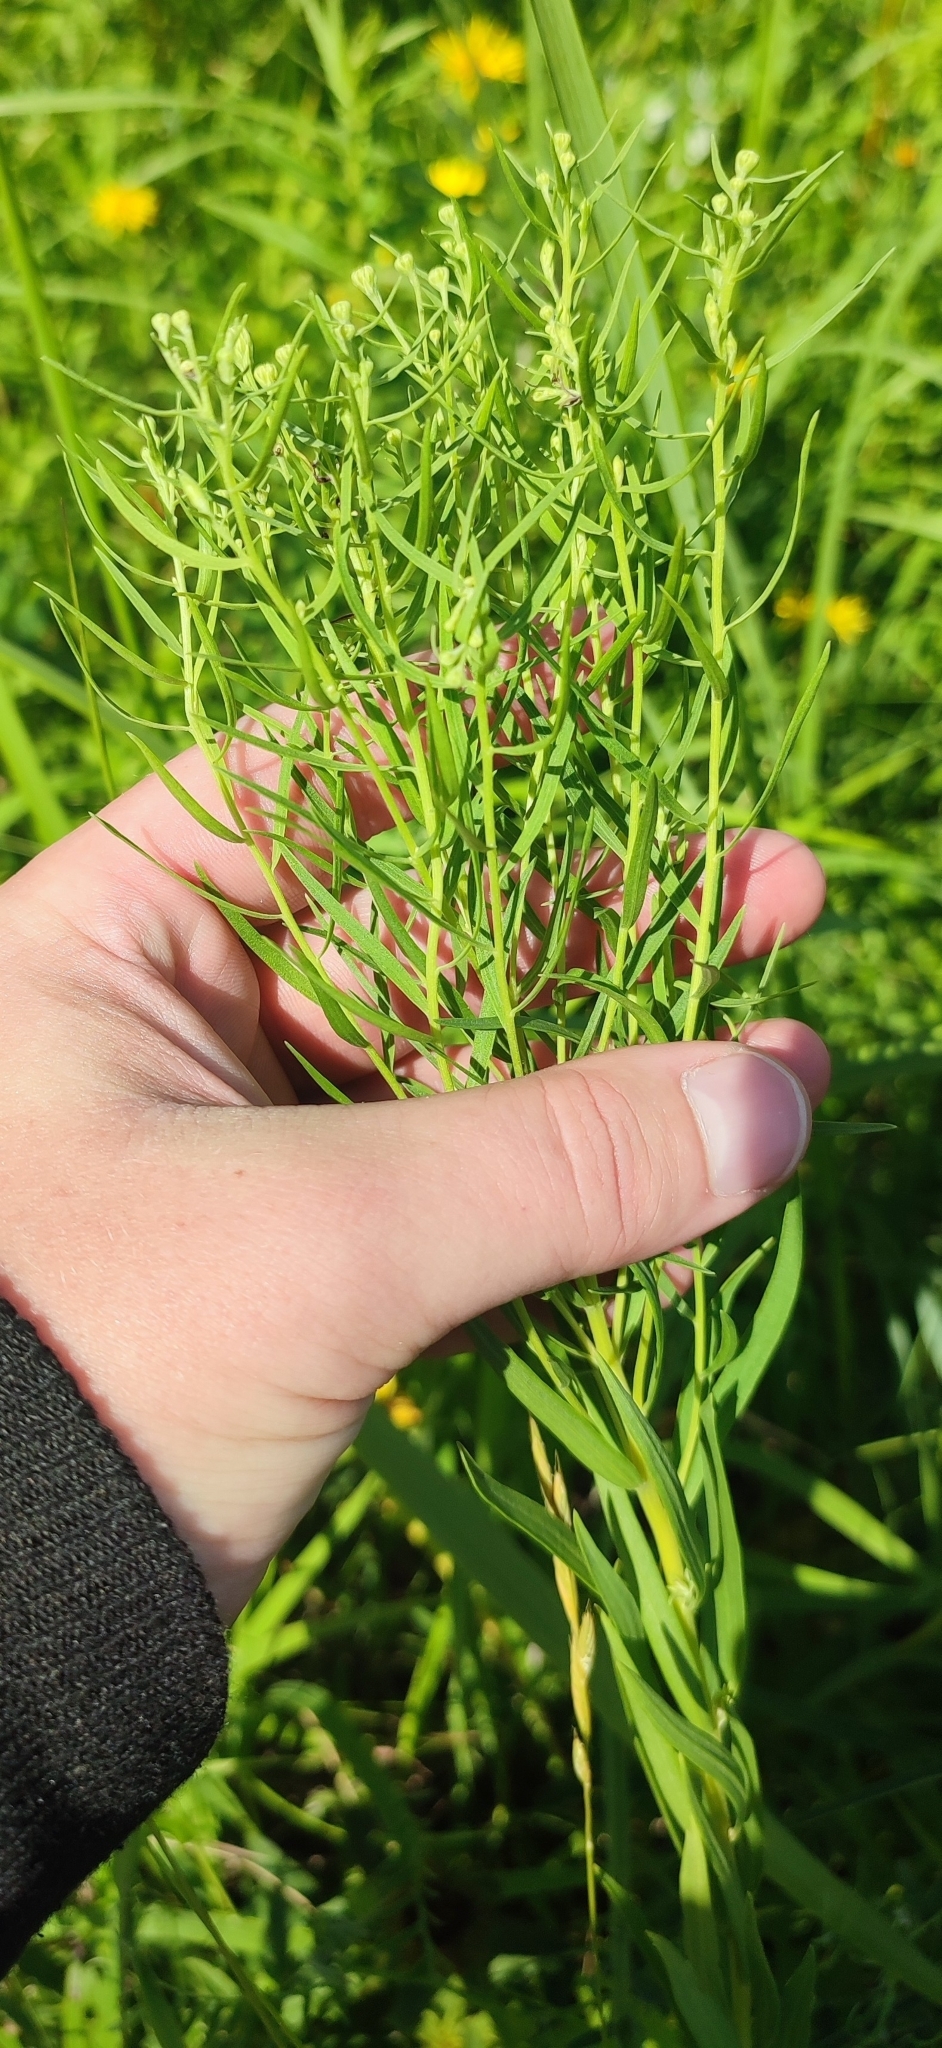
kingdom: Plantae
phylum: Tracheophyta
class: Magnoliopsida
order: Asterales
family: Asteraceae
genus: Galatella
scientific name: Galatella biflora
